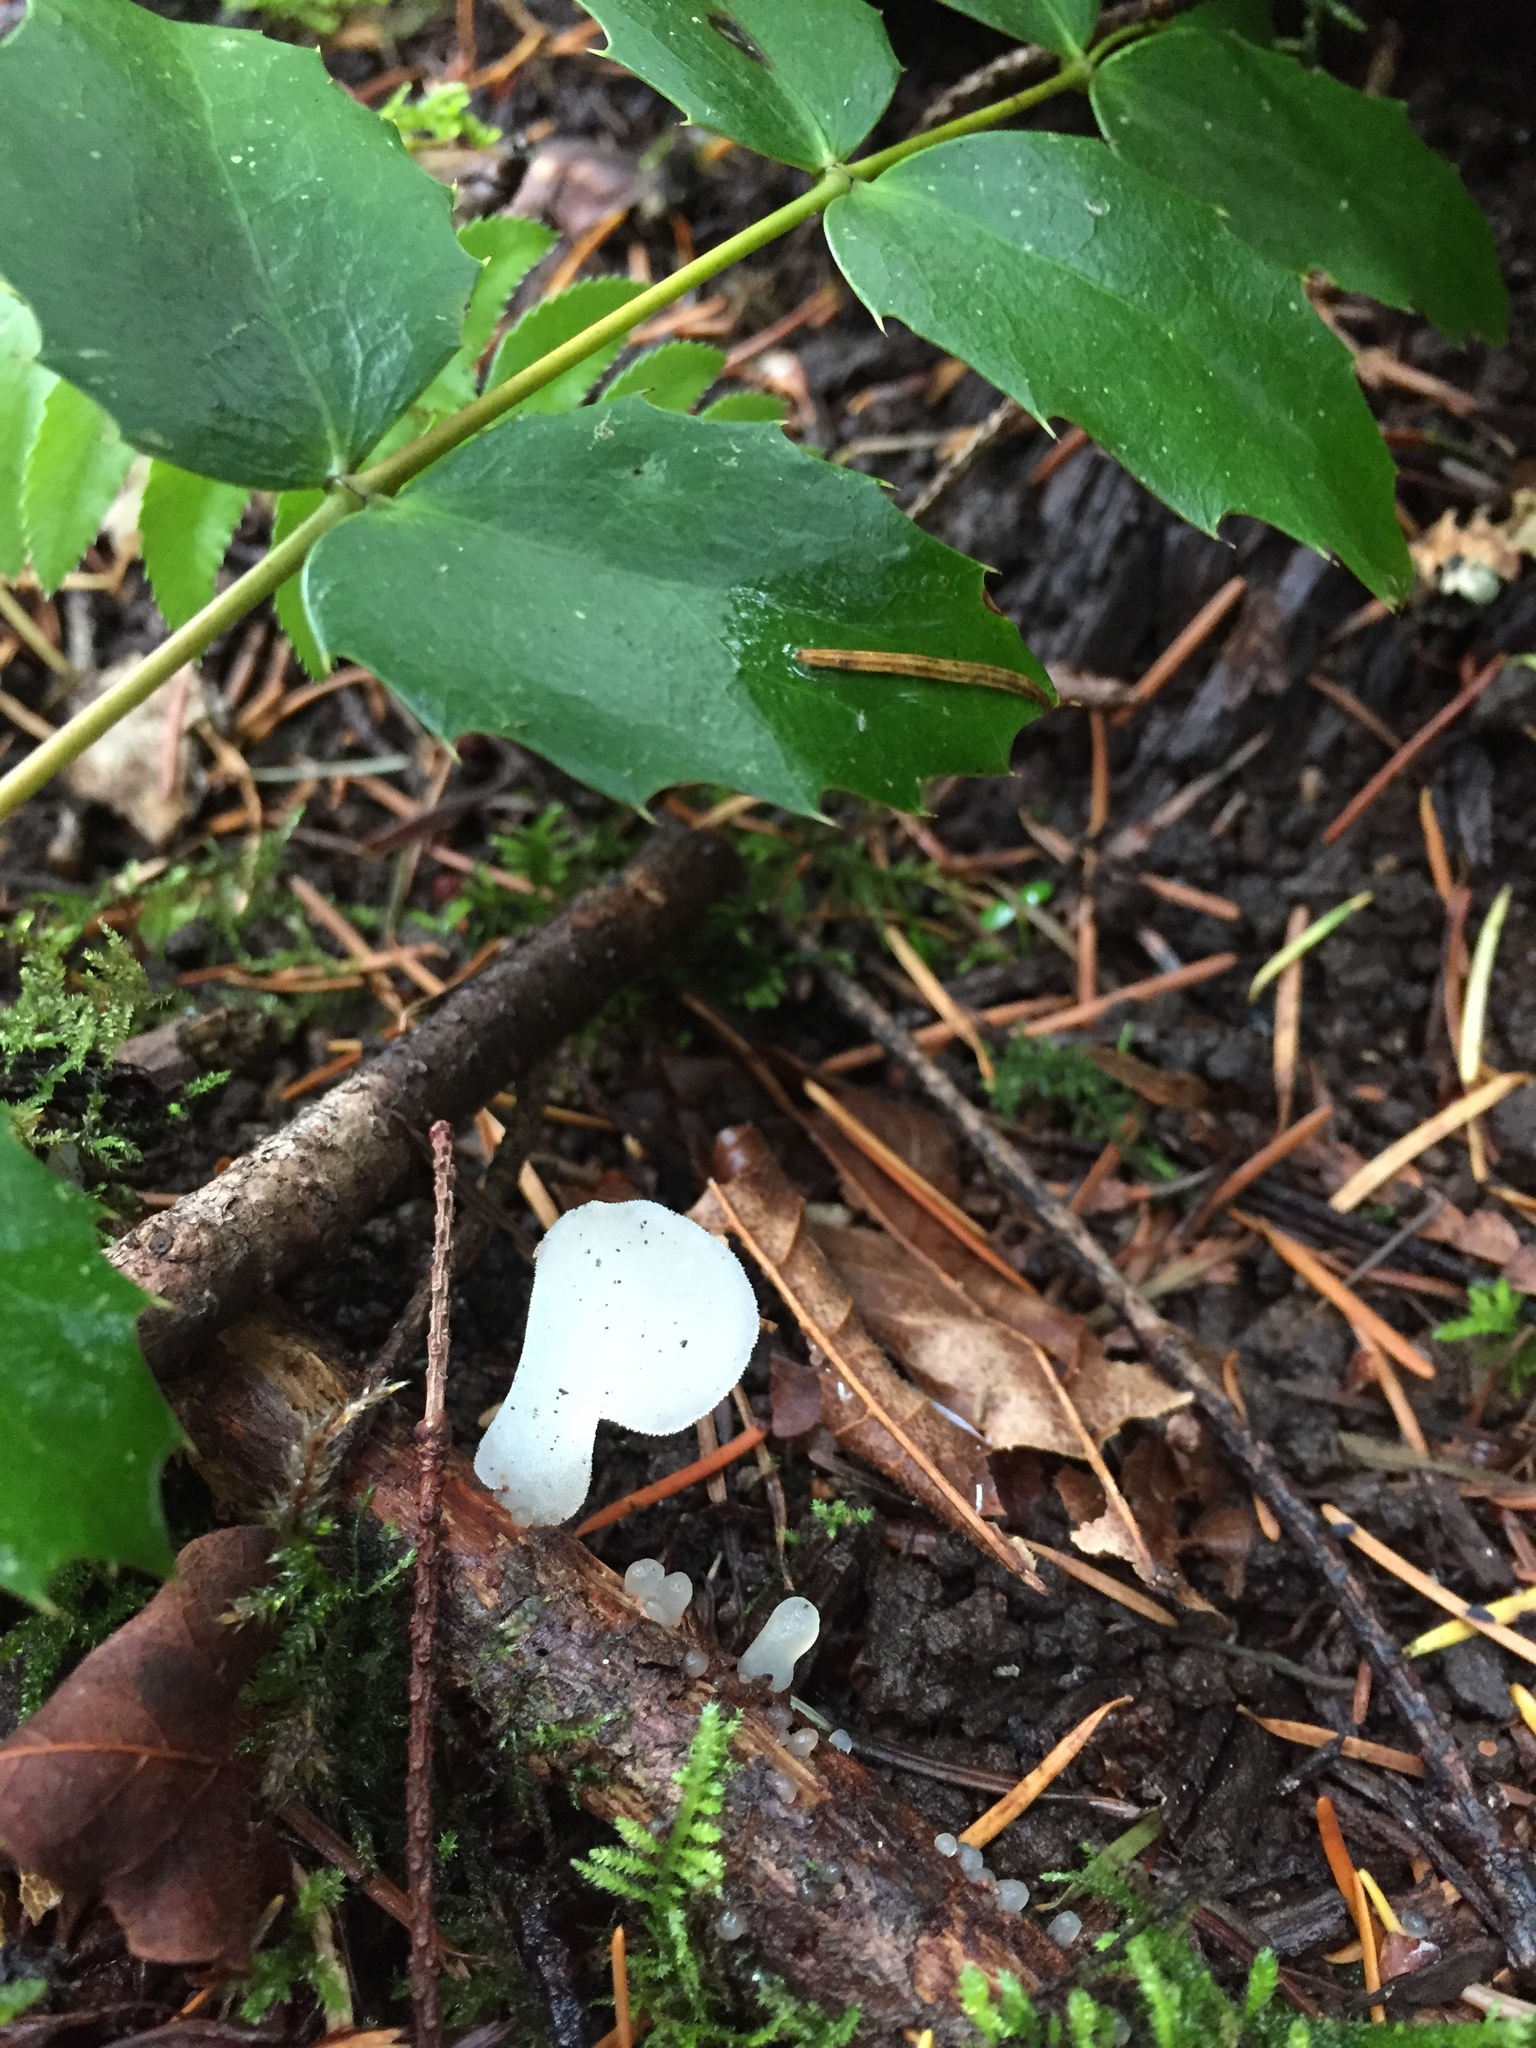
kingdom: Fungi
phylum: Basidiomycota
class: Agaricomycetes
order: Auriculariales
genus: Pseudohydnum
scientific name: Pseudohydnum gelatinosum
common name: Jelly tongue
